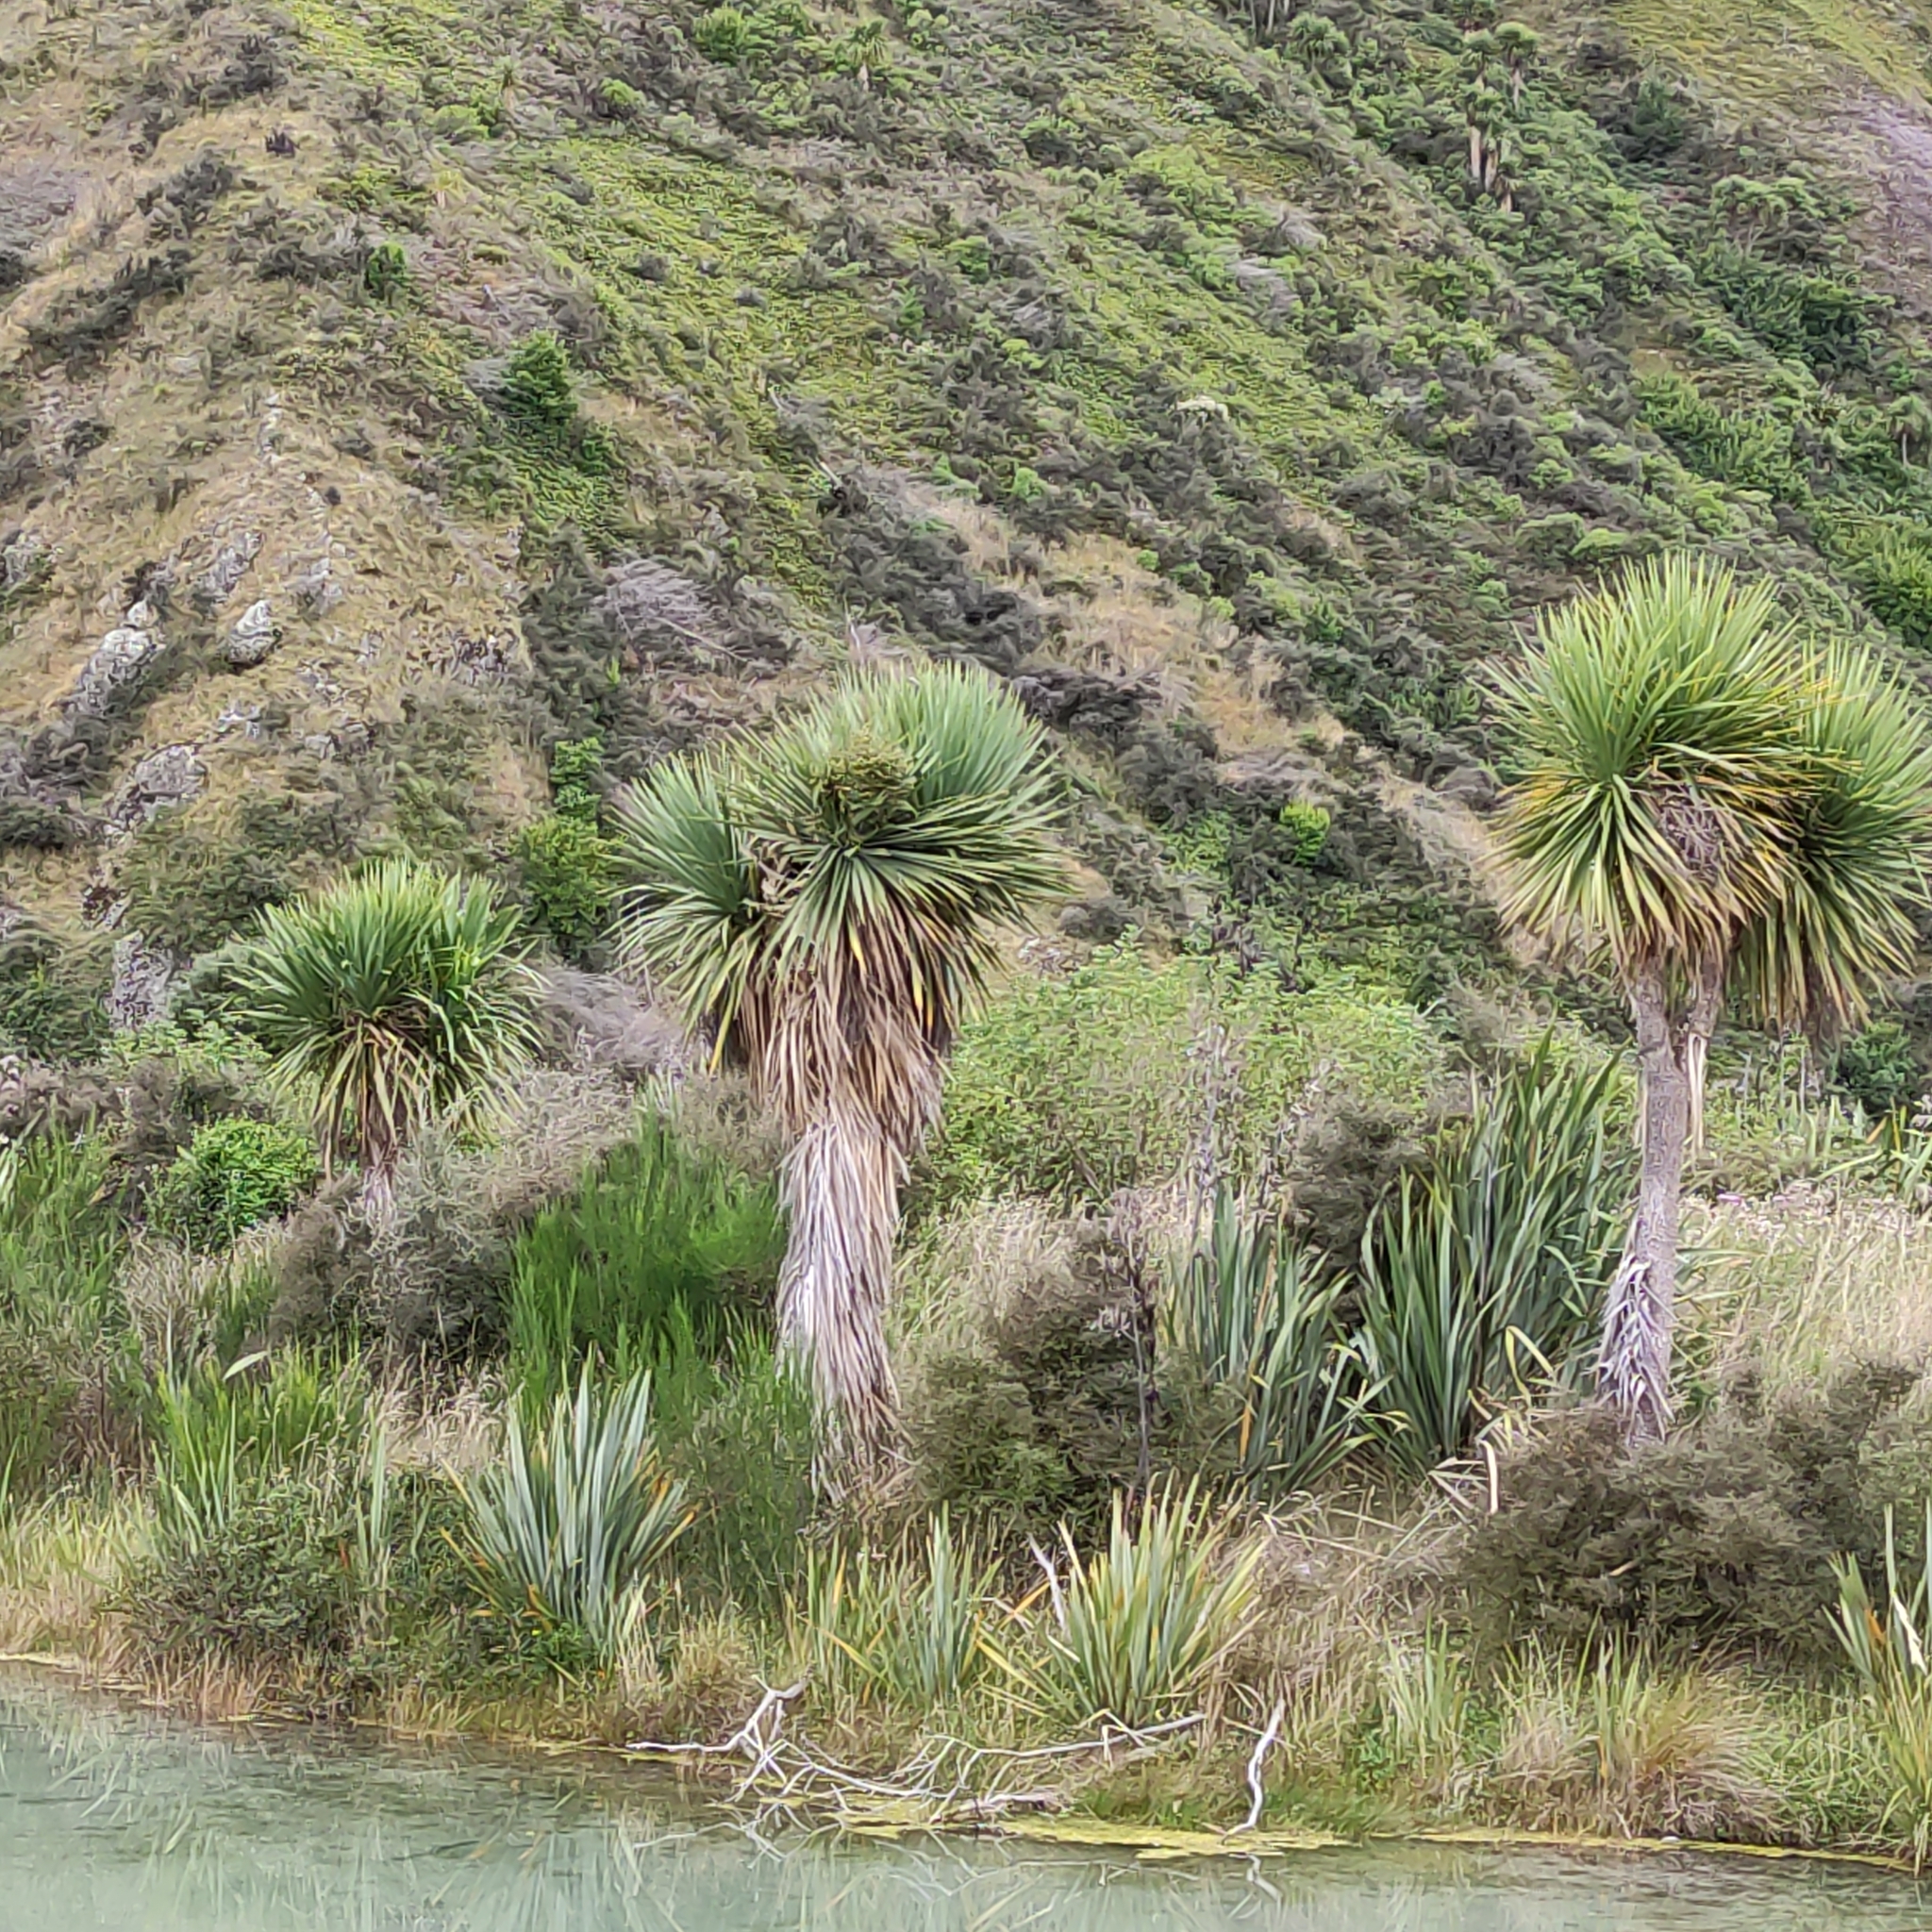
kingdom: Plantae
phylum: Tracheophyta
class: Liliopsida
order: Asparagales
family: Asparagaceae
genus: Cordyline
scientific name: Cordyline australis
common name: Cabbage-palm
